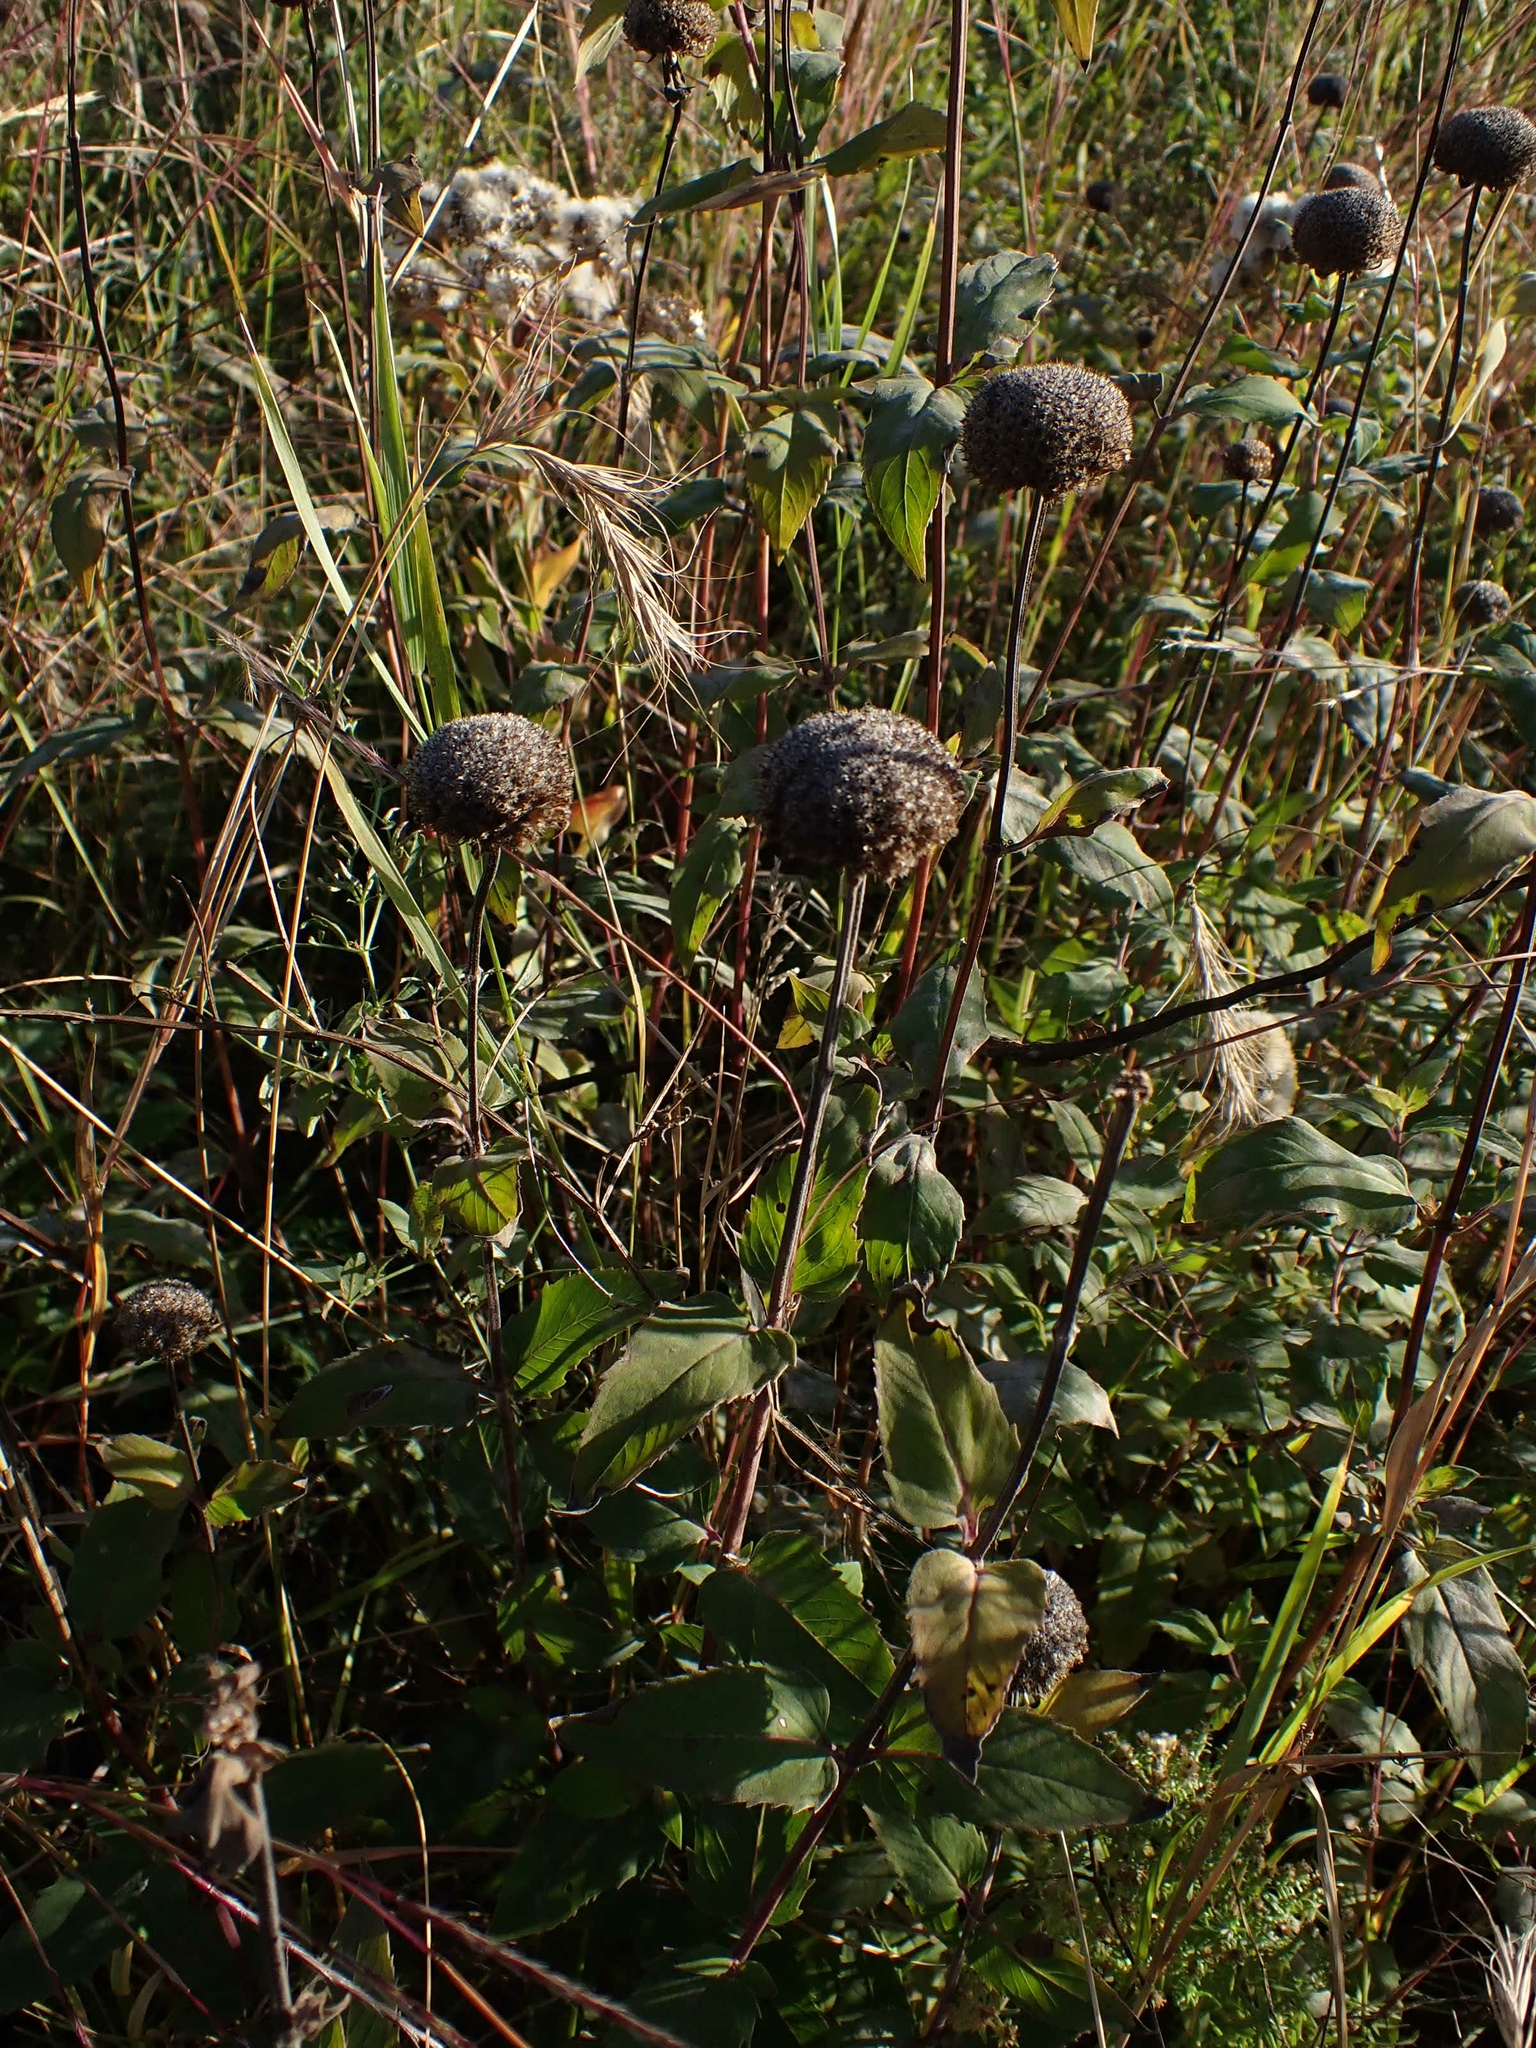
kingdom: Plantae
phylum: Tracheophyta
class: Magnoliopsida
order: Lamiales
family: Lamiaceae
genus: Monarda
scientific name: Monarda fistulosa
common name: Purple beebalm
